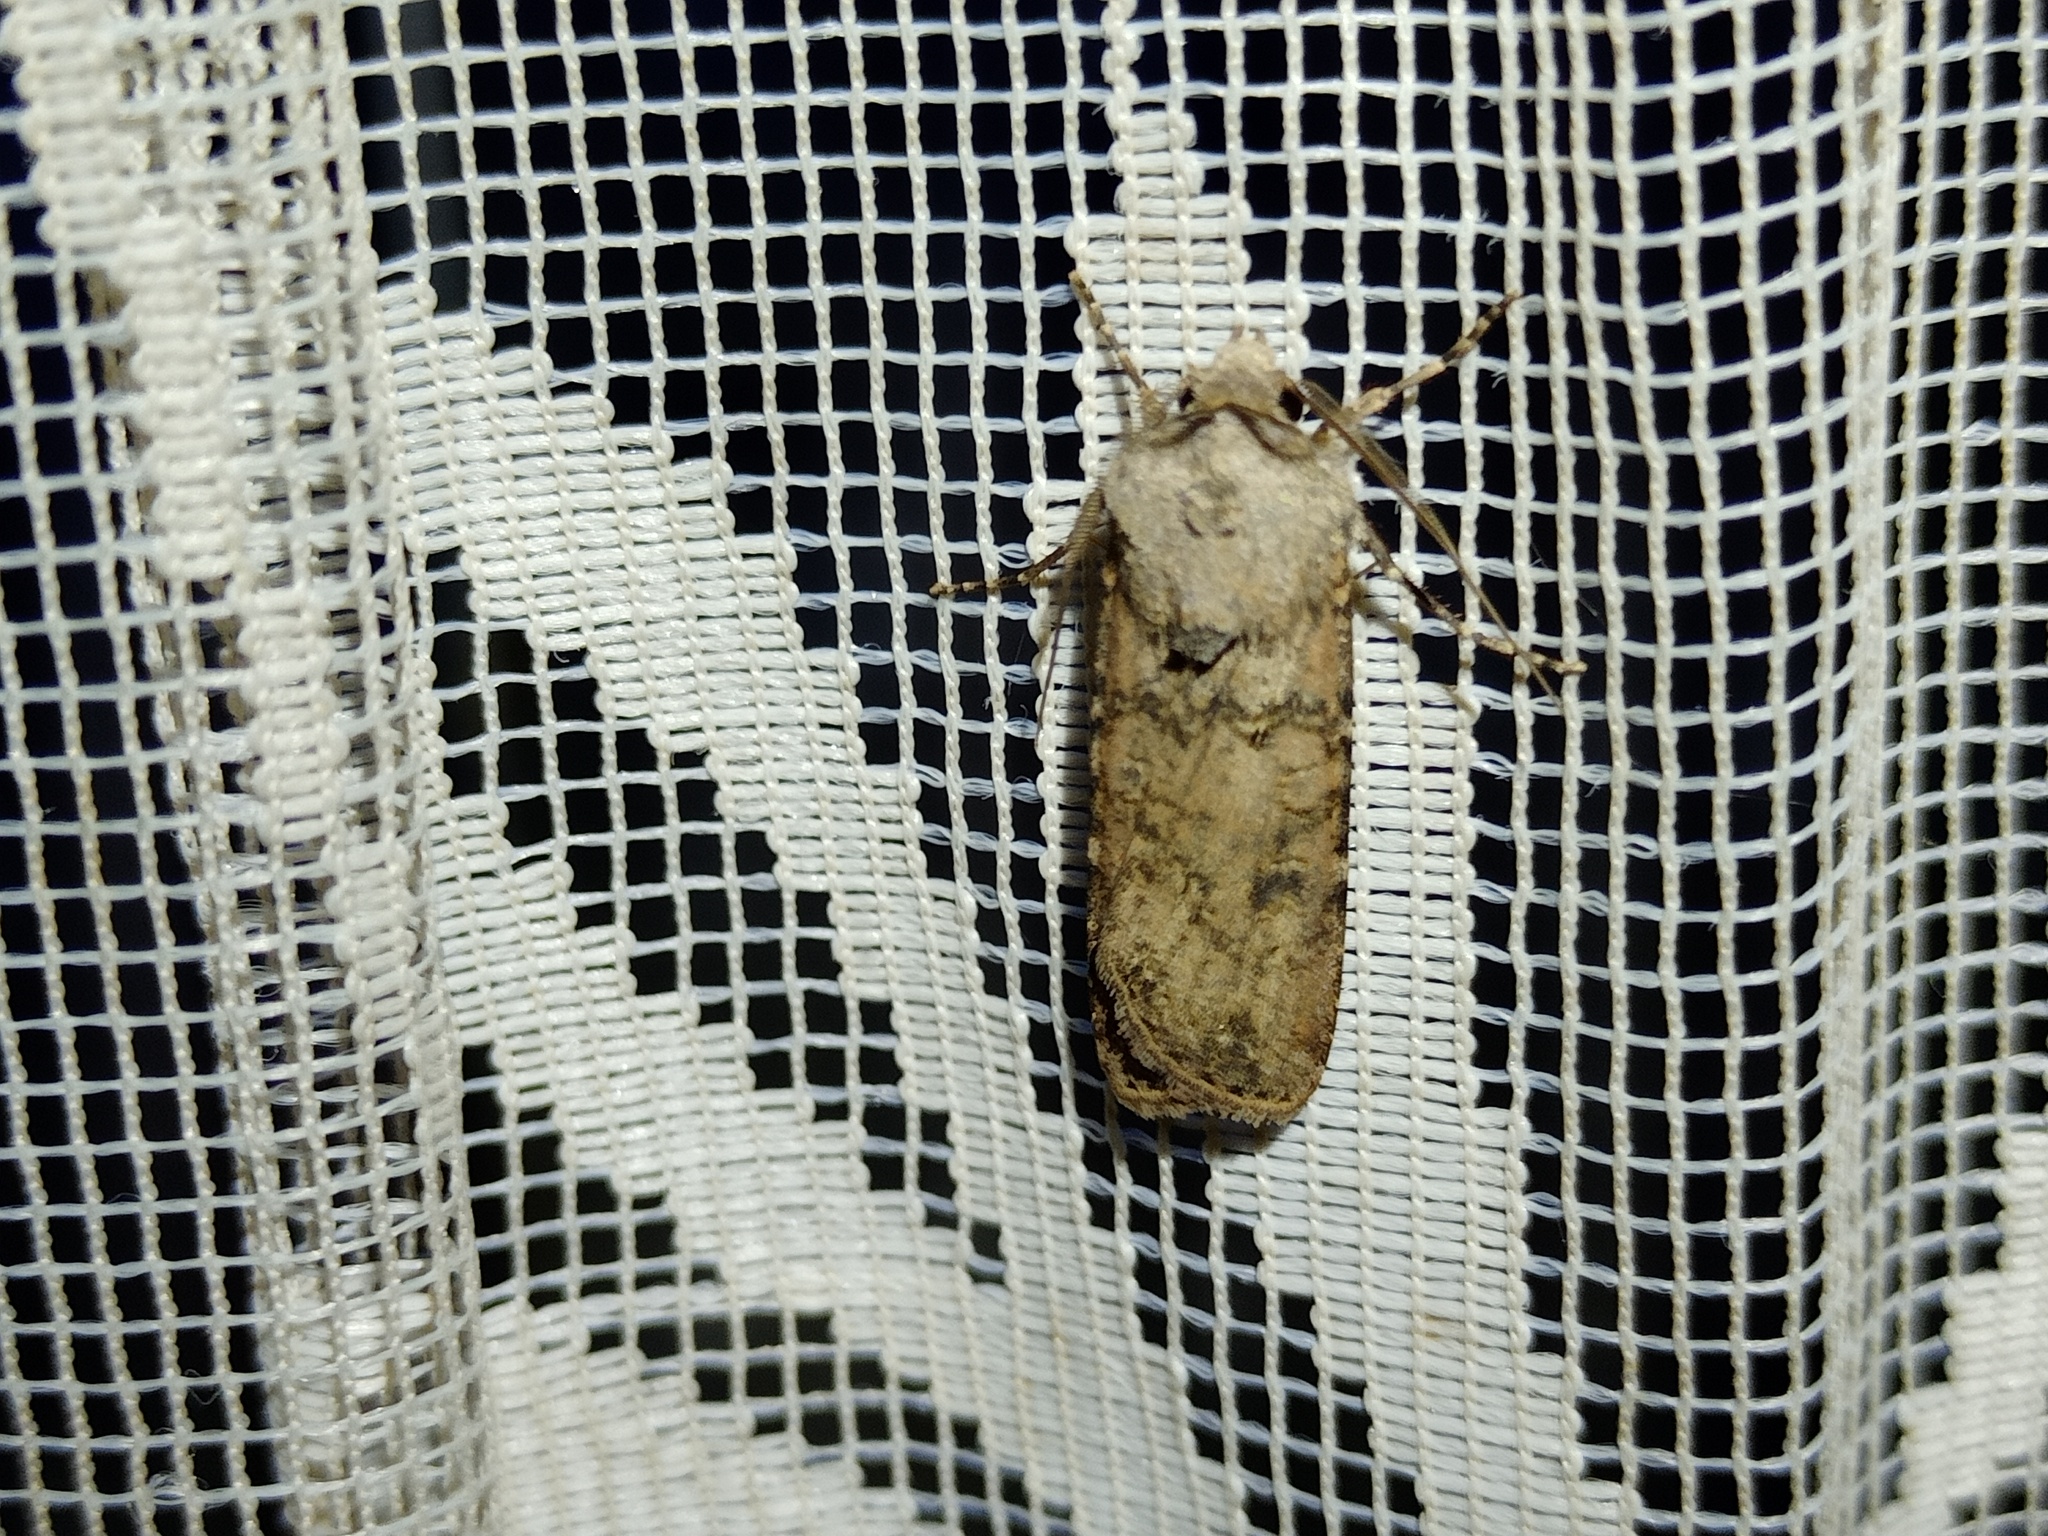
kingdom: Animalia
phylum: Arthropoda
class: Insecta
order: Lepidoptera
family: Noctuidae
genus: Agrotis
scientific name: Agrotis segetum
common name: Turnip moth
